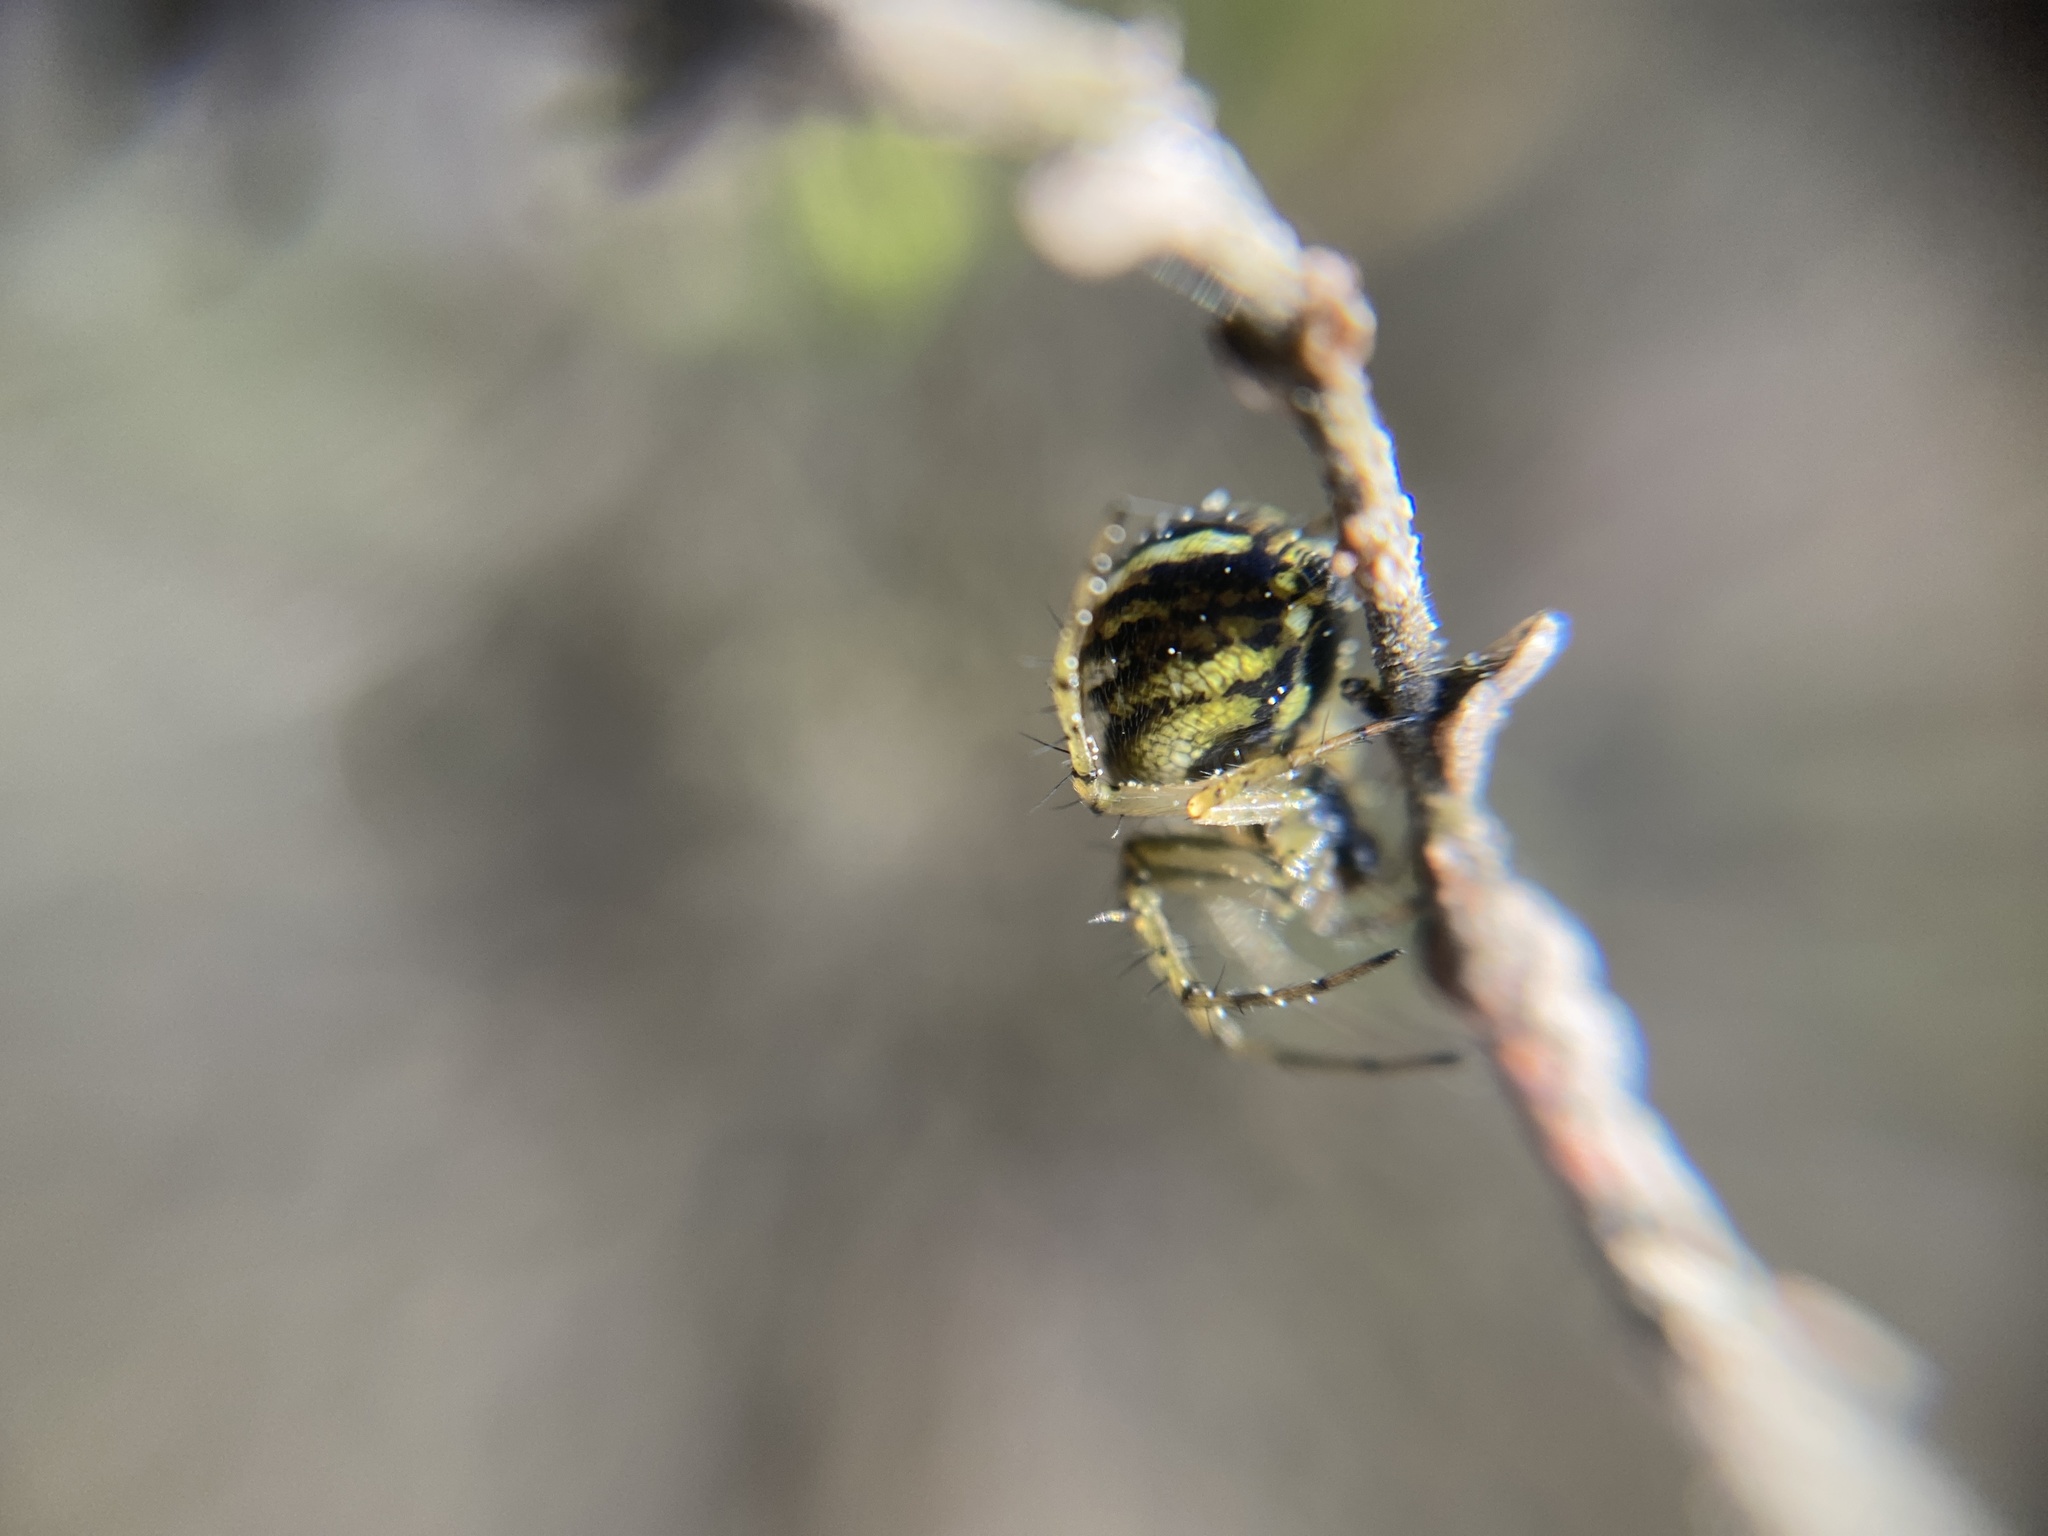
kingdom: Animalia
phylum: Arthropoda
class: Arachnida
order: Araneae
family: Araneidae
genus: Mangora
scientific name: Mangora acalypha
